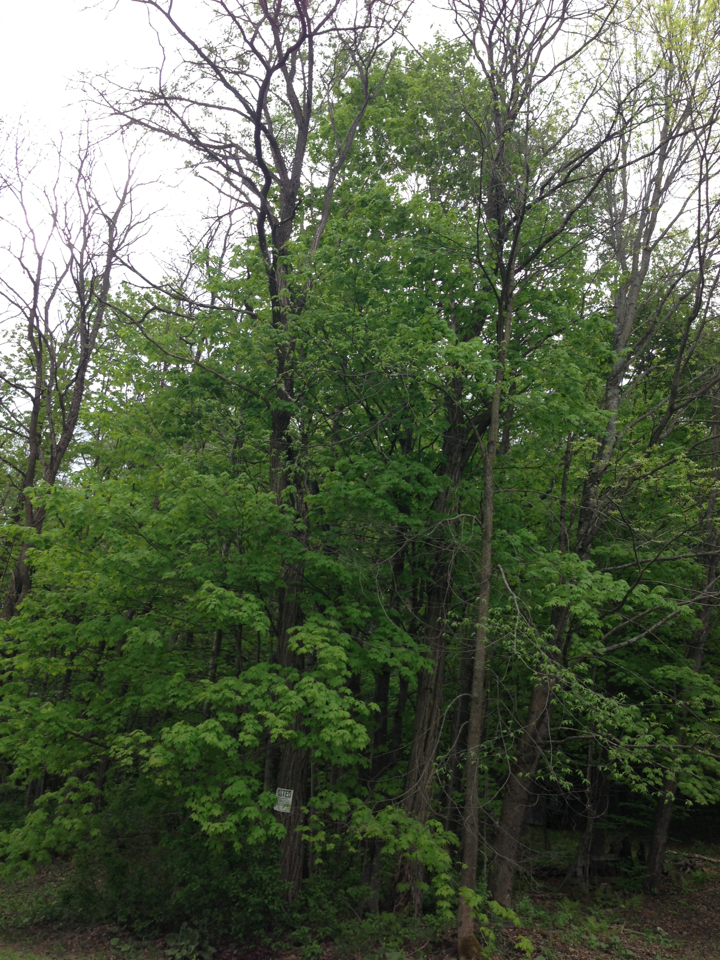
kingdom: Plantae
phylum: Tracheophyta
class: Magnoliopsida
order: Fabales
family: Fabaceae
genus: Robinia
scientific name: Robinia pseudoacacia
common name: Black locust
